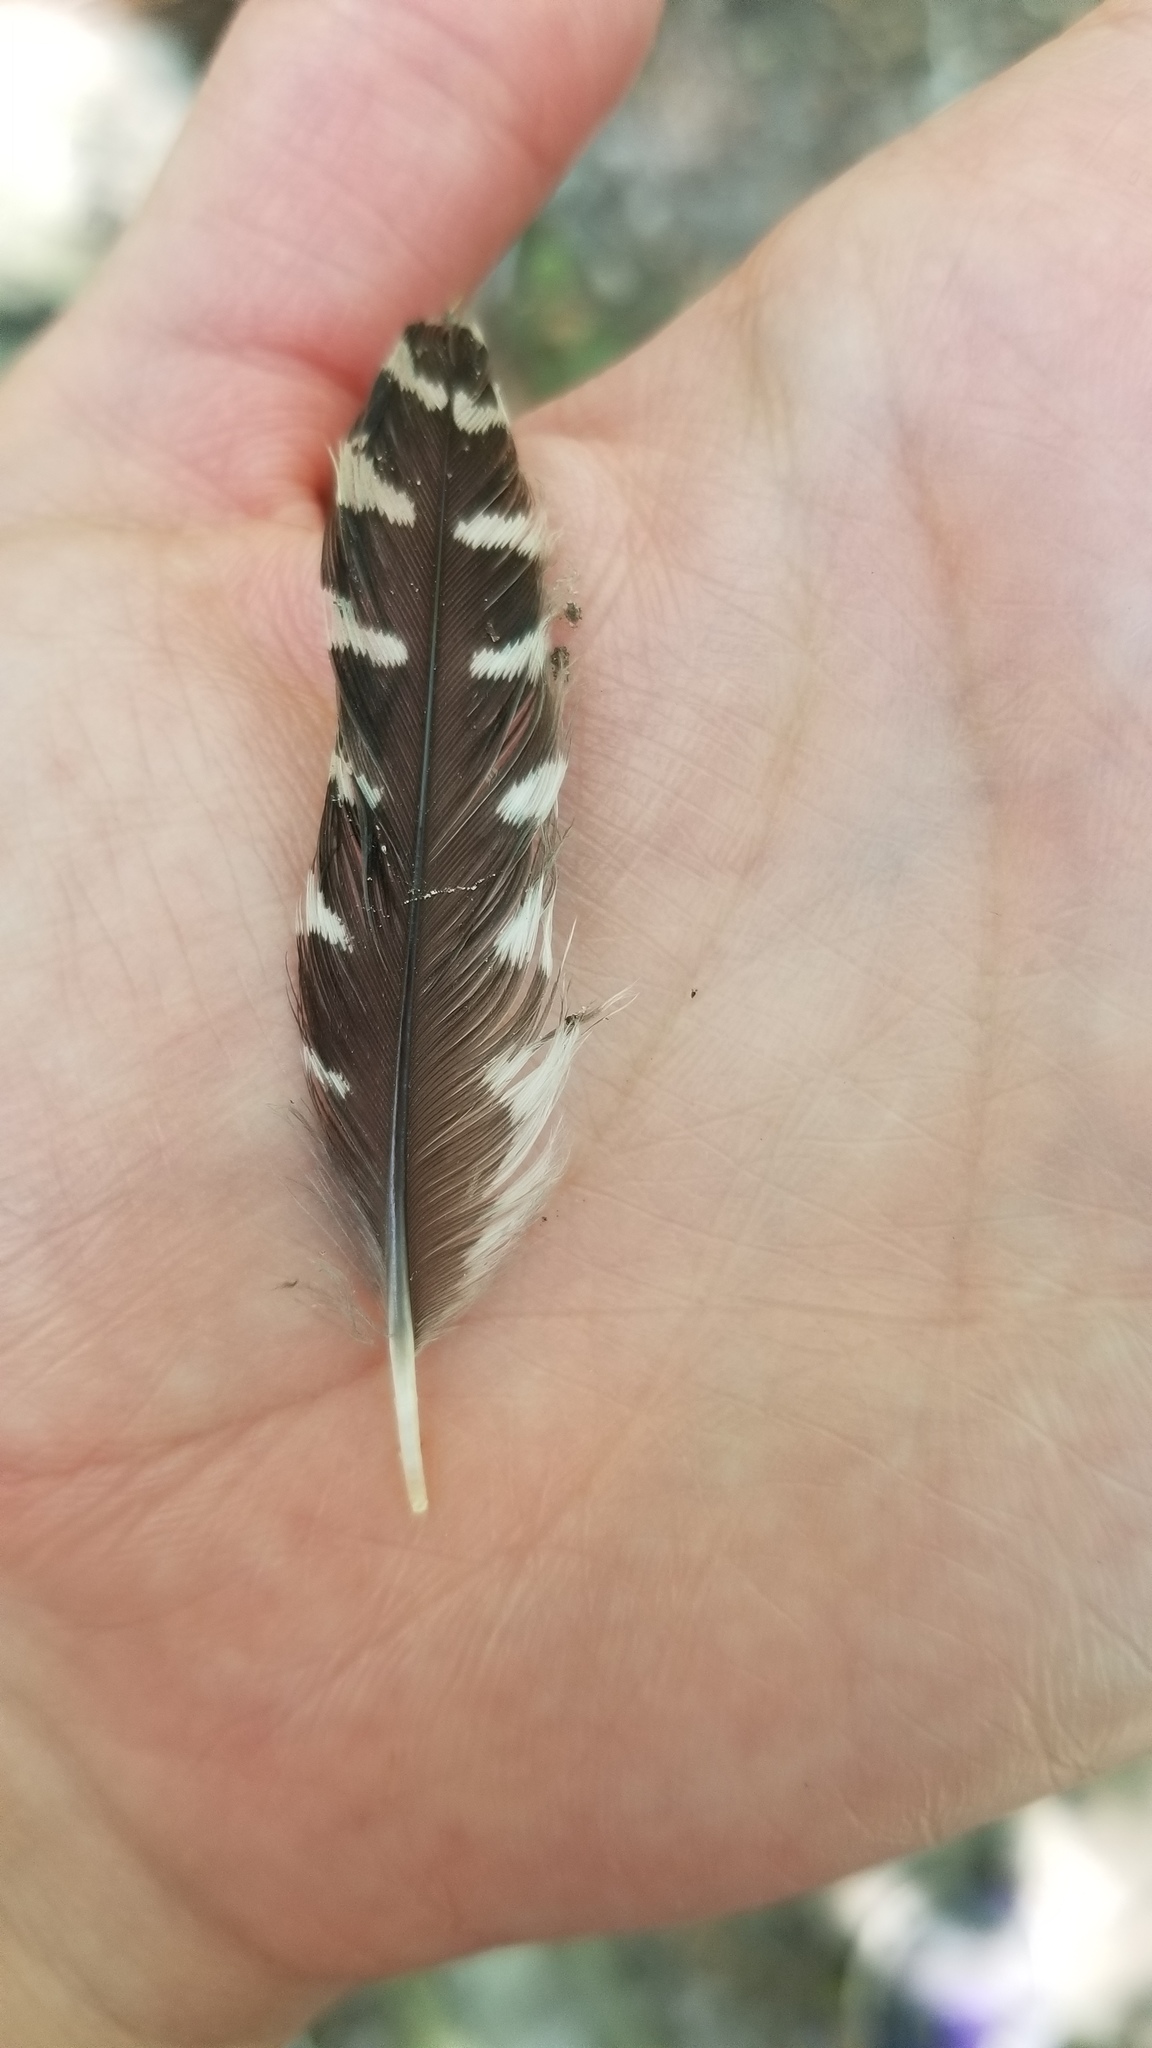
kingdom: Animalia
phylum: Chordata
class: Aves
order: Piciformes
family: Picidae
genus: Melanerpes
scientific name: Melanerpes carolinus
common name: Red-bellied woodpecker
